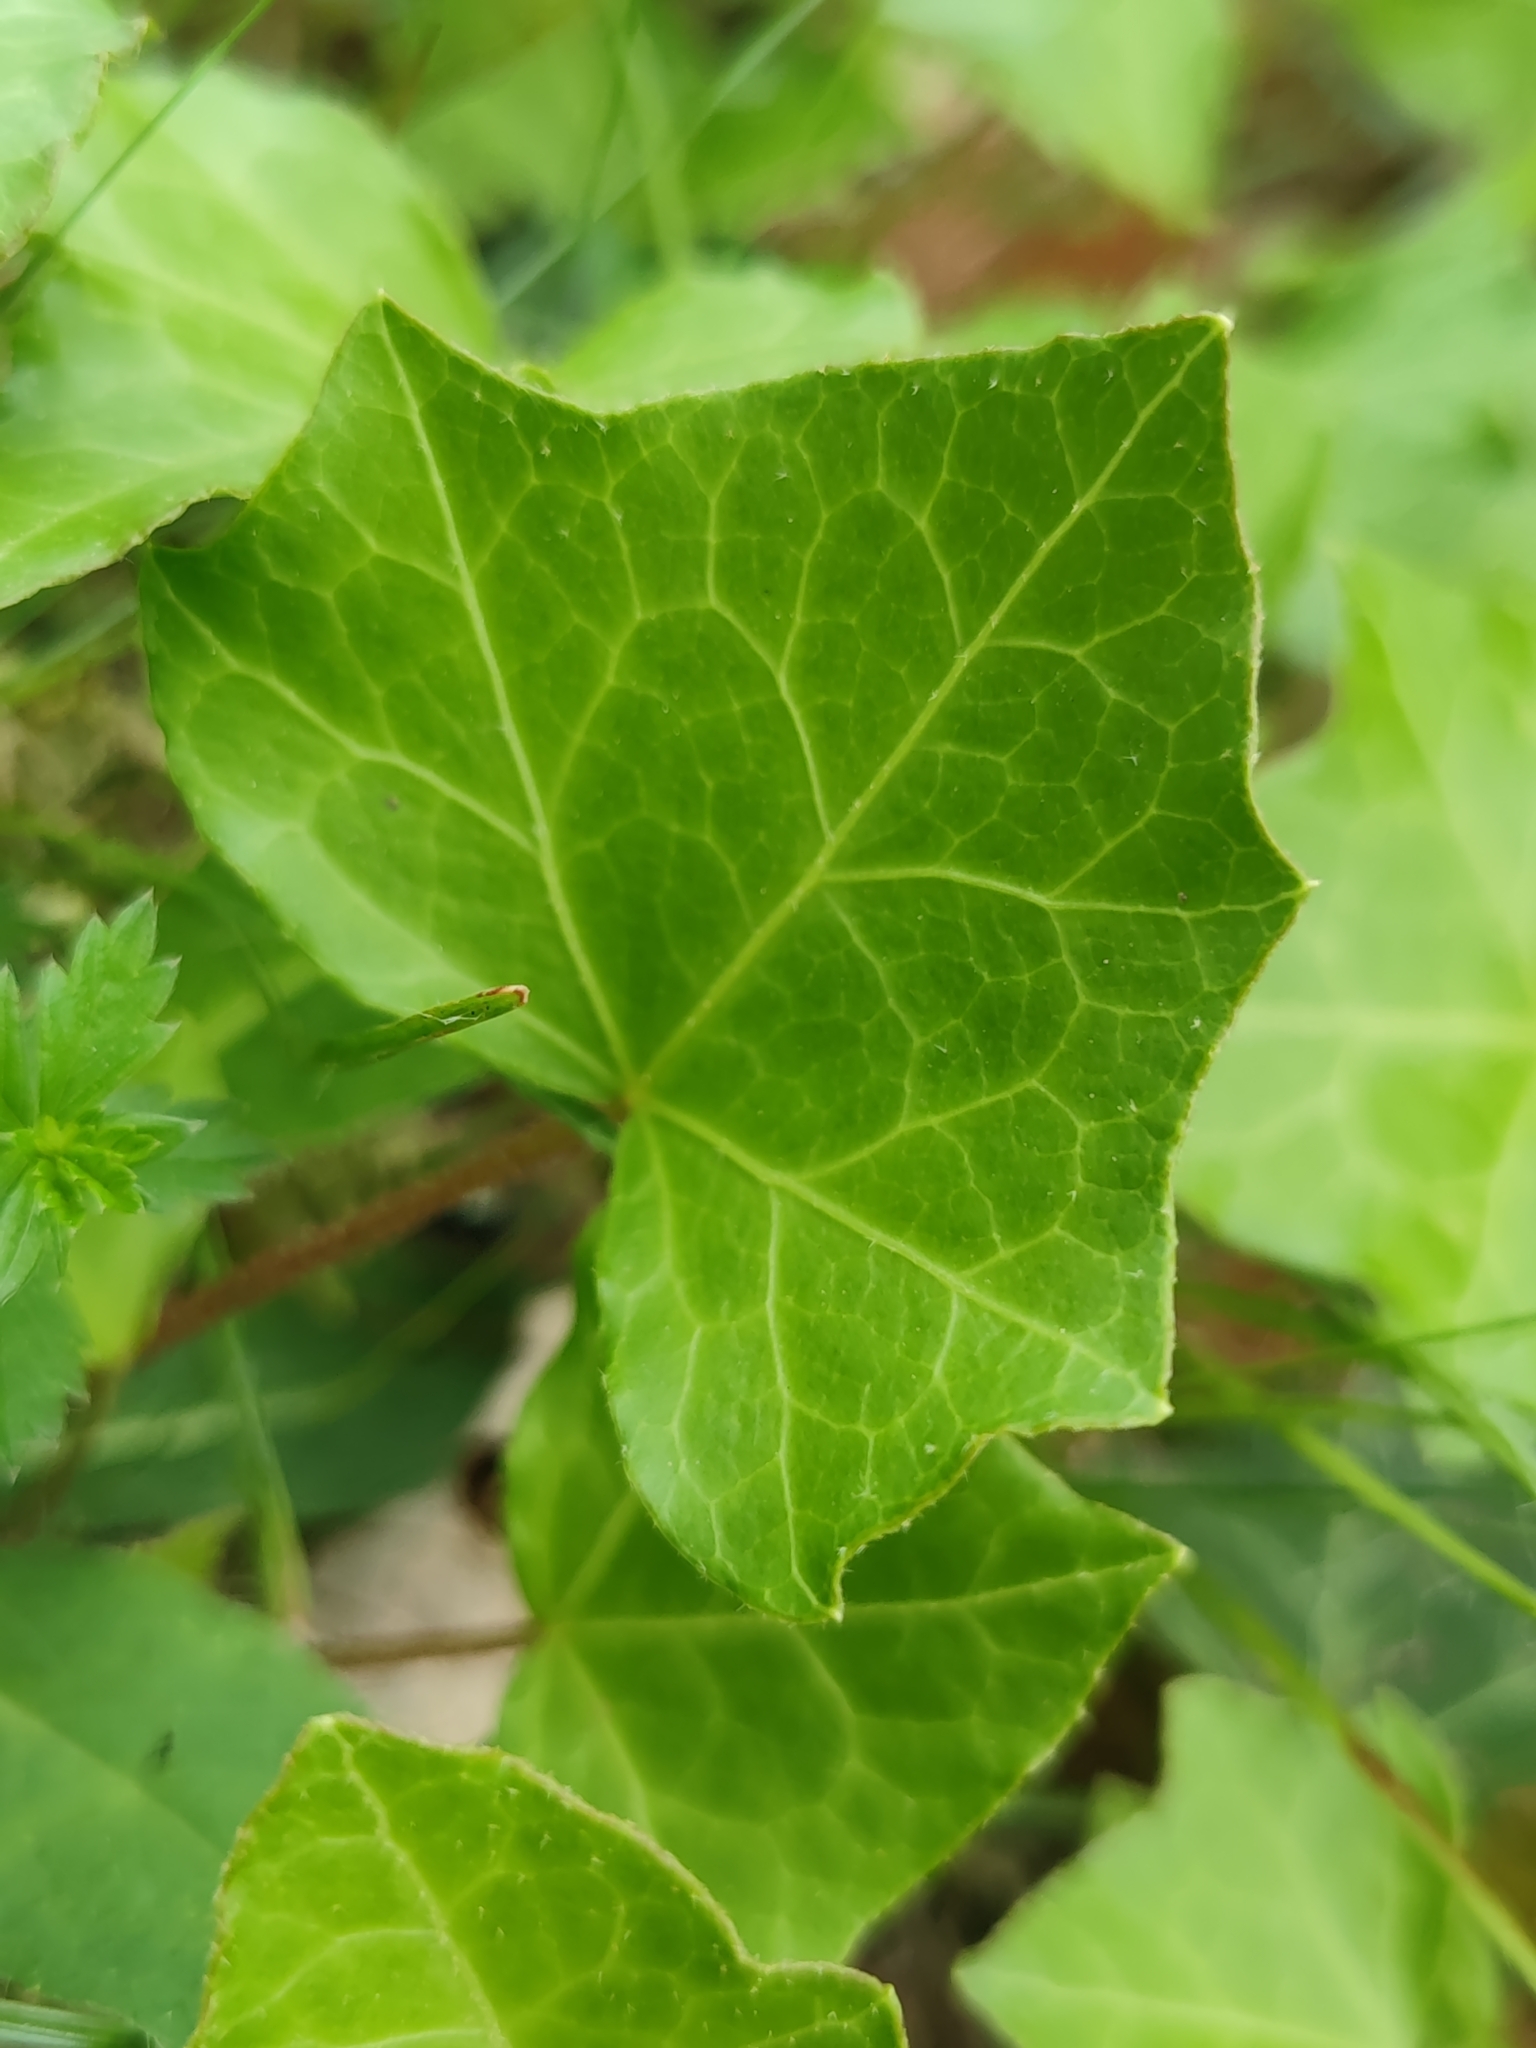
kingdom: Plantae
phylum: Tracheophyta
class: Magnoliopsida
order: Apiales
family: Araliaceae
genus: Hedera
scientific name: Hedera helix
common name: Ivy
